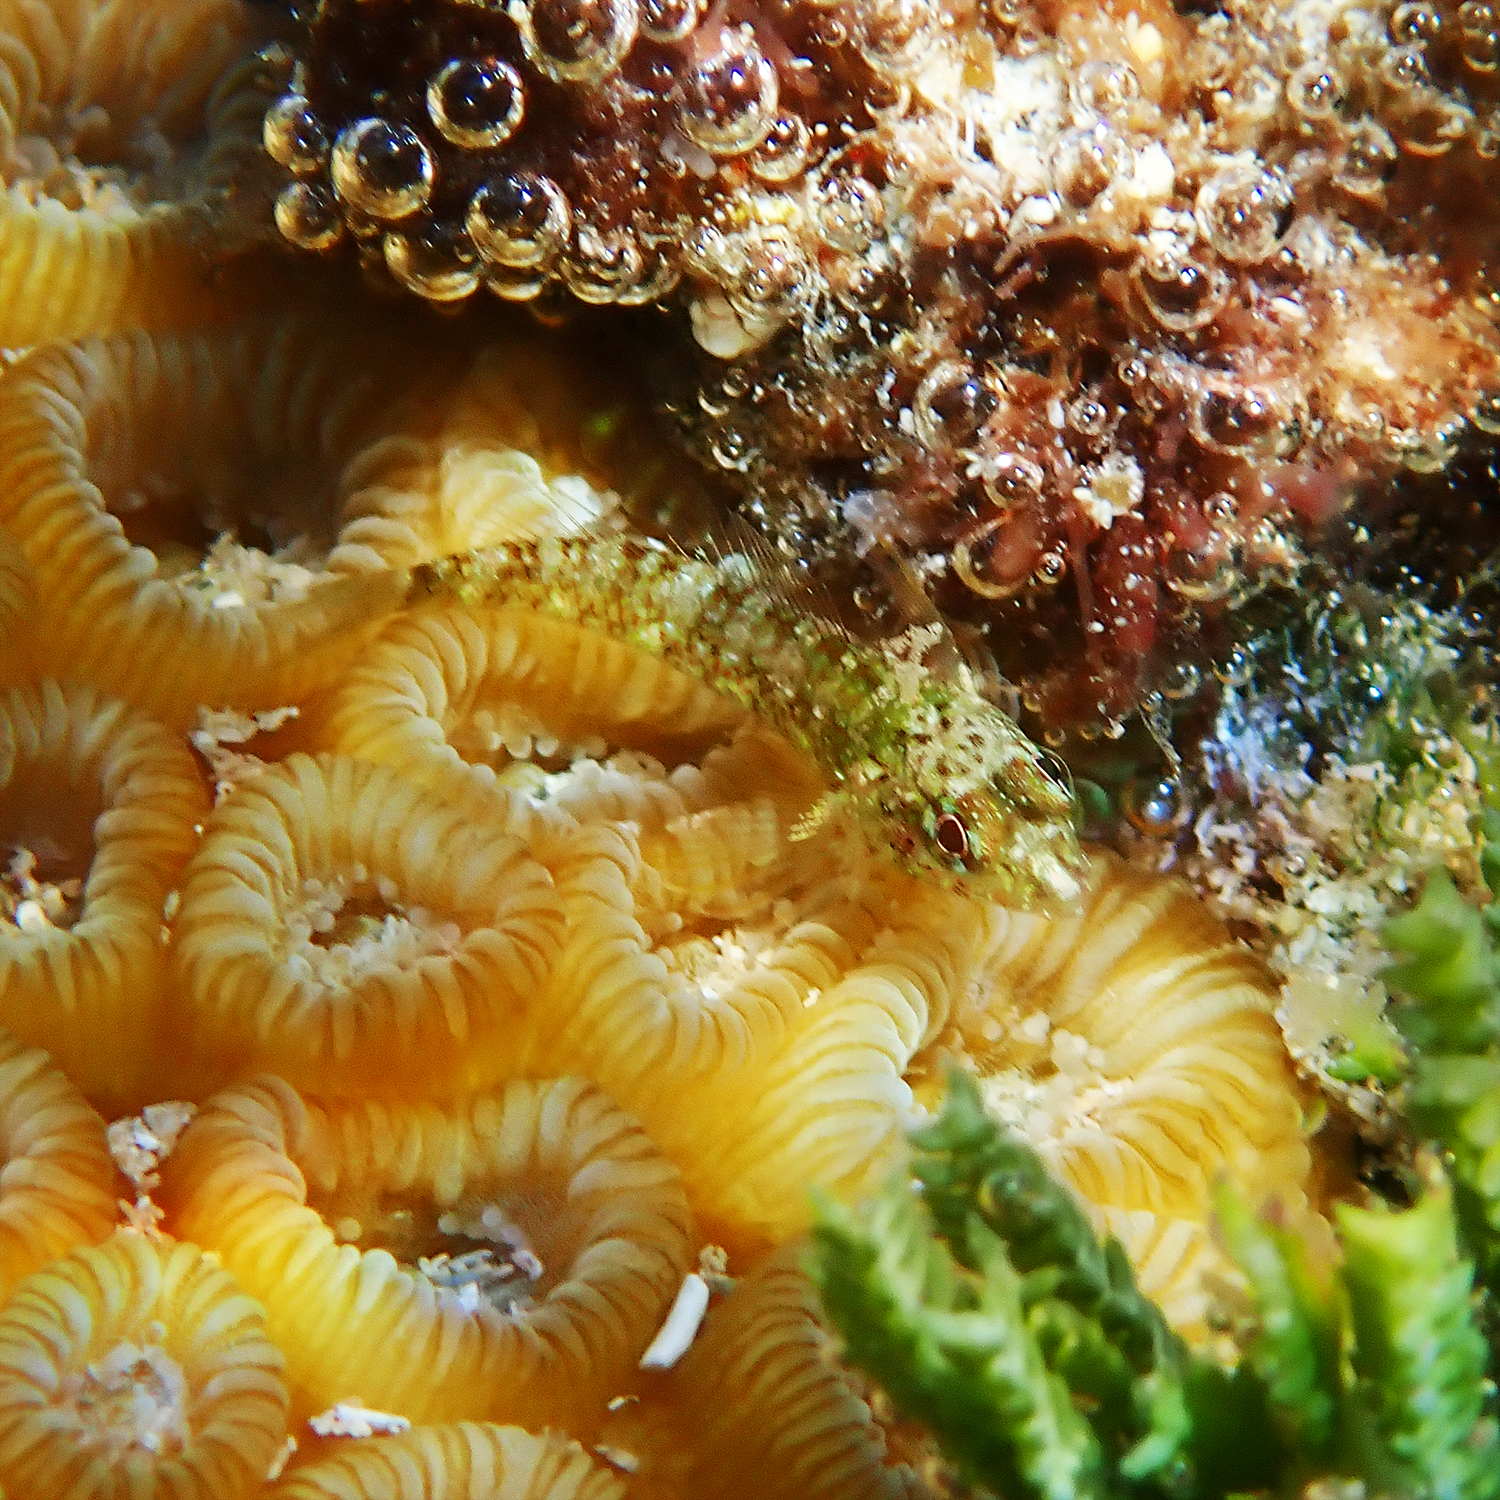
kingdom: Animalia
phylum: Chordata
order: Perciformes
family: Tripterygiidae
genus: Enneapterygius
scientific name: Enneapterygius rufopileus
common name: Lord howe black-head triplefin
